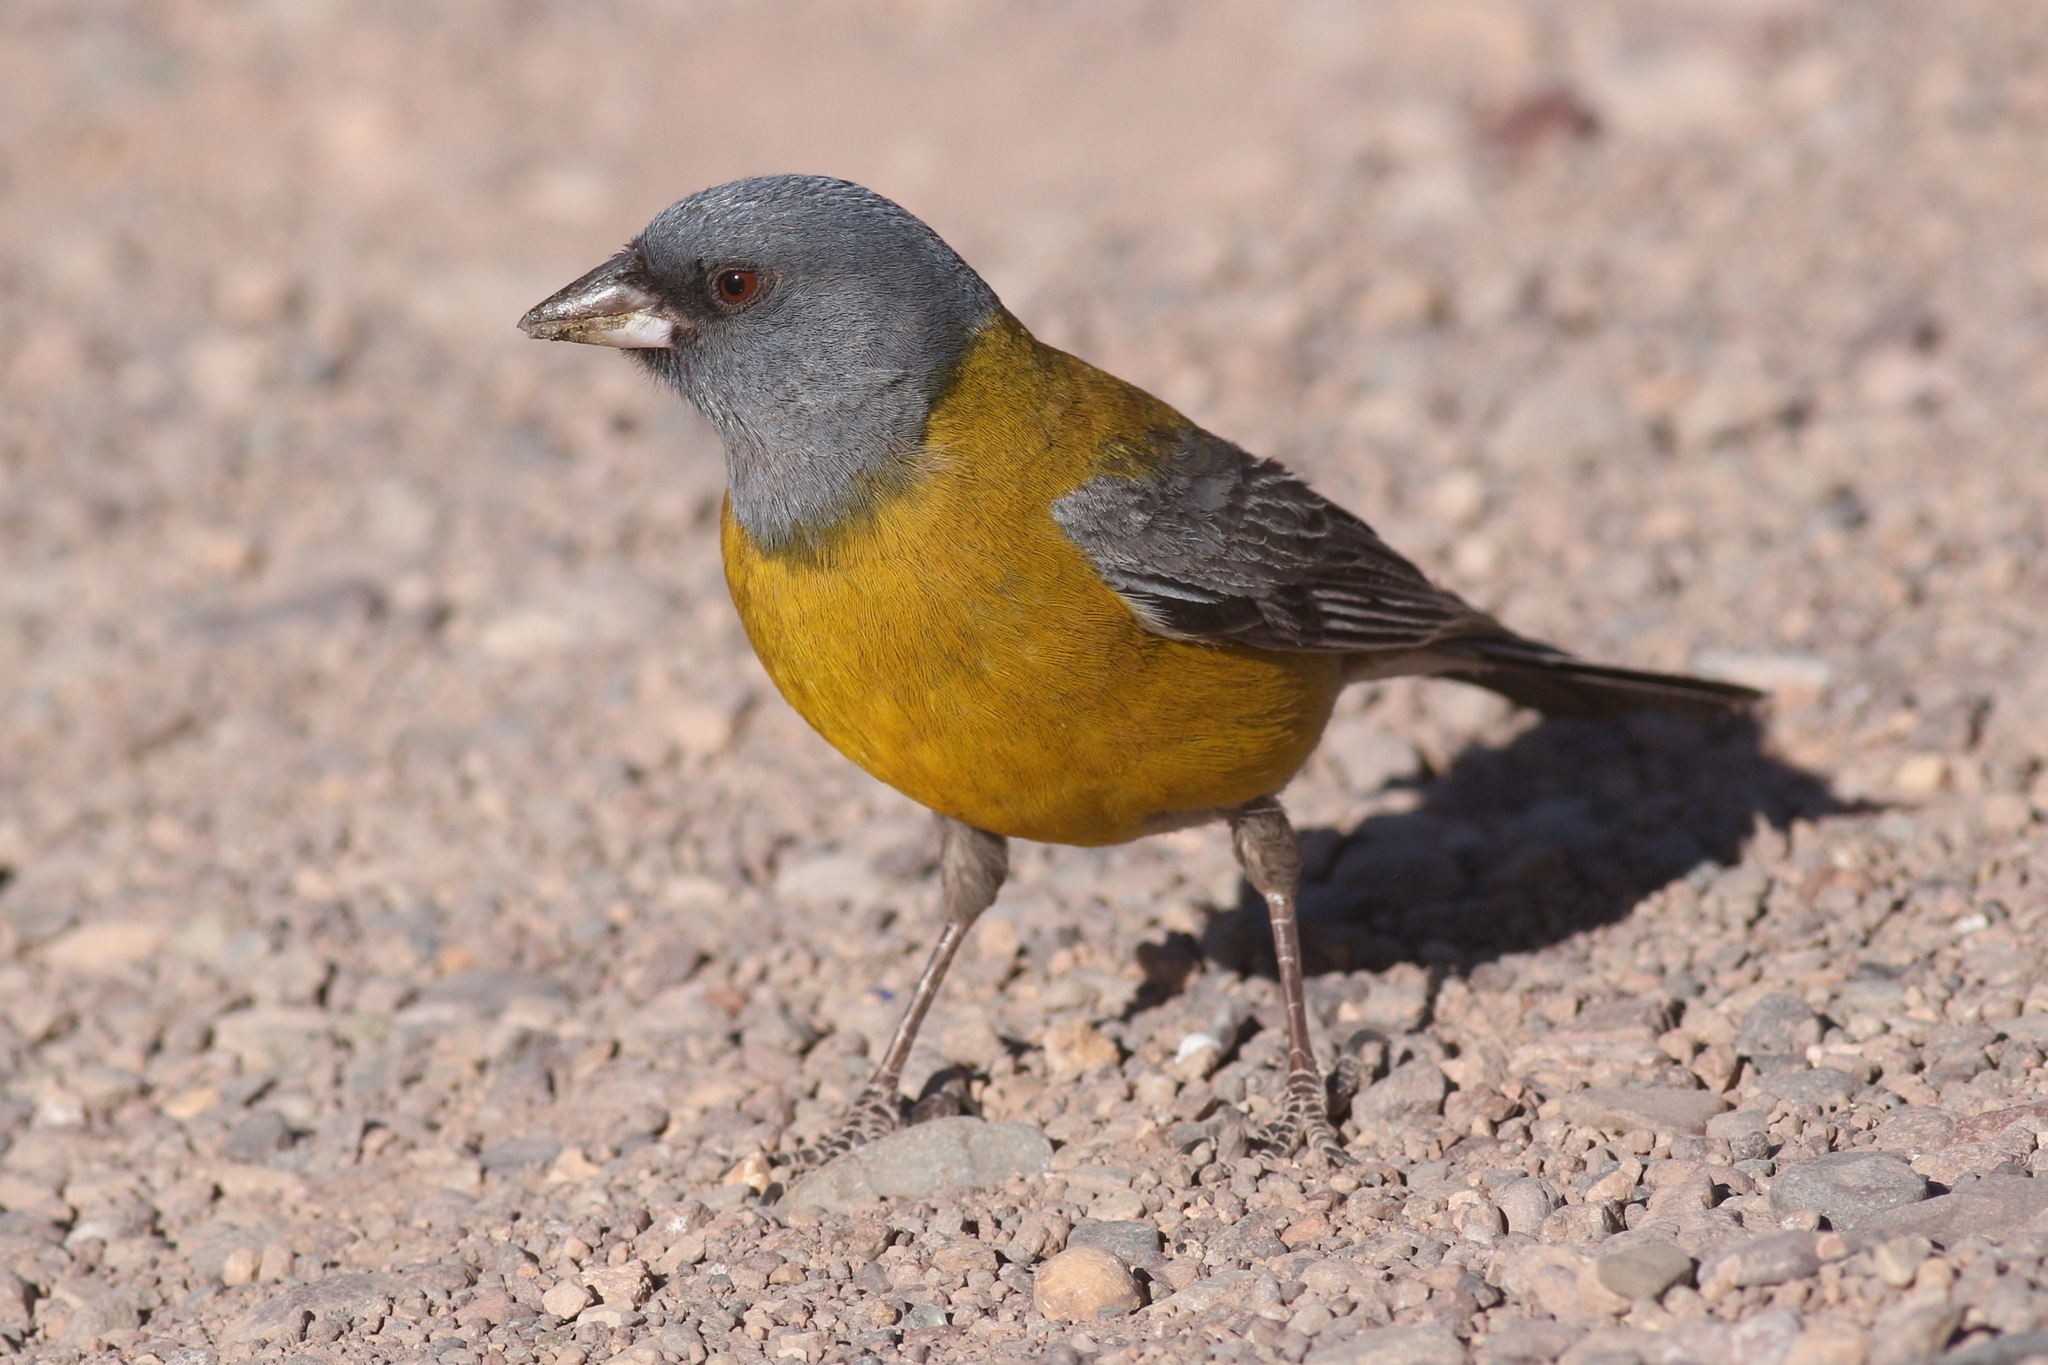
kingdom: Animalia
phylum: Chordata
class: Aves
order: Passeriformes
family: Thraupidae
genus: Phrygilus
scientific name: Phrygilus gayi
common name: Grey-hooded sierra finch
